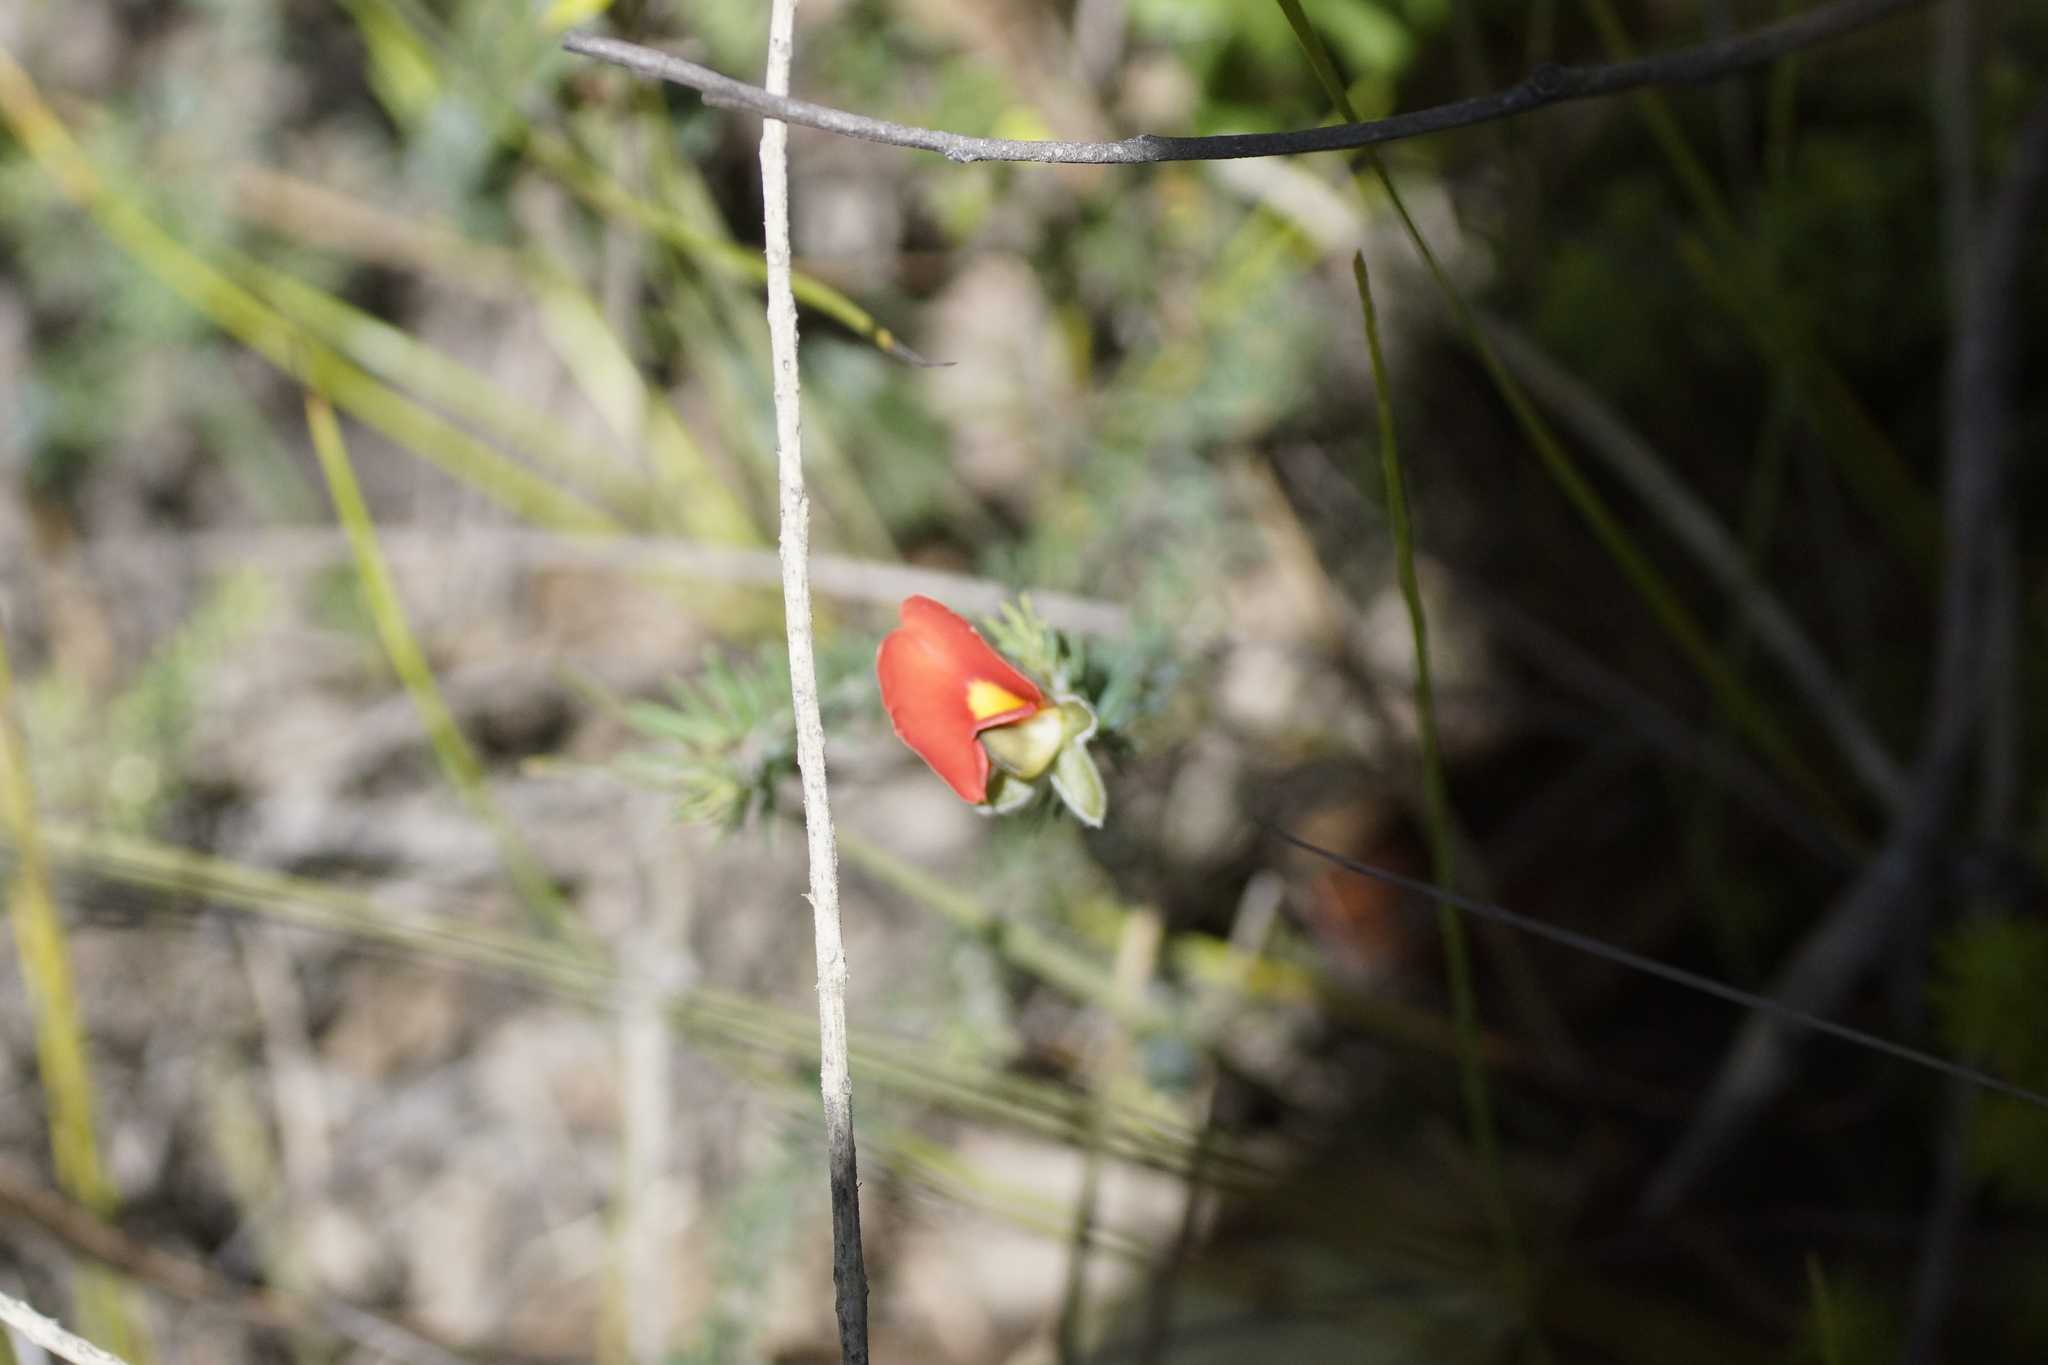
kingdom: Plantae
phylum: Tracheophyta
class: Magnoliopsida
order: Fabales
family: Fabaceae
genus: Gompholobium
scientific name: Gompholobium ecostatum
